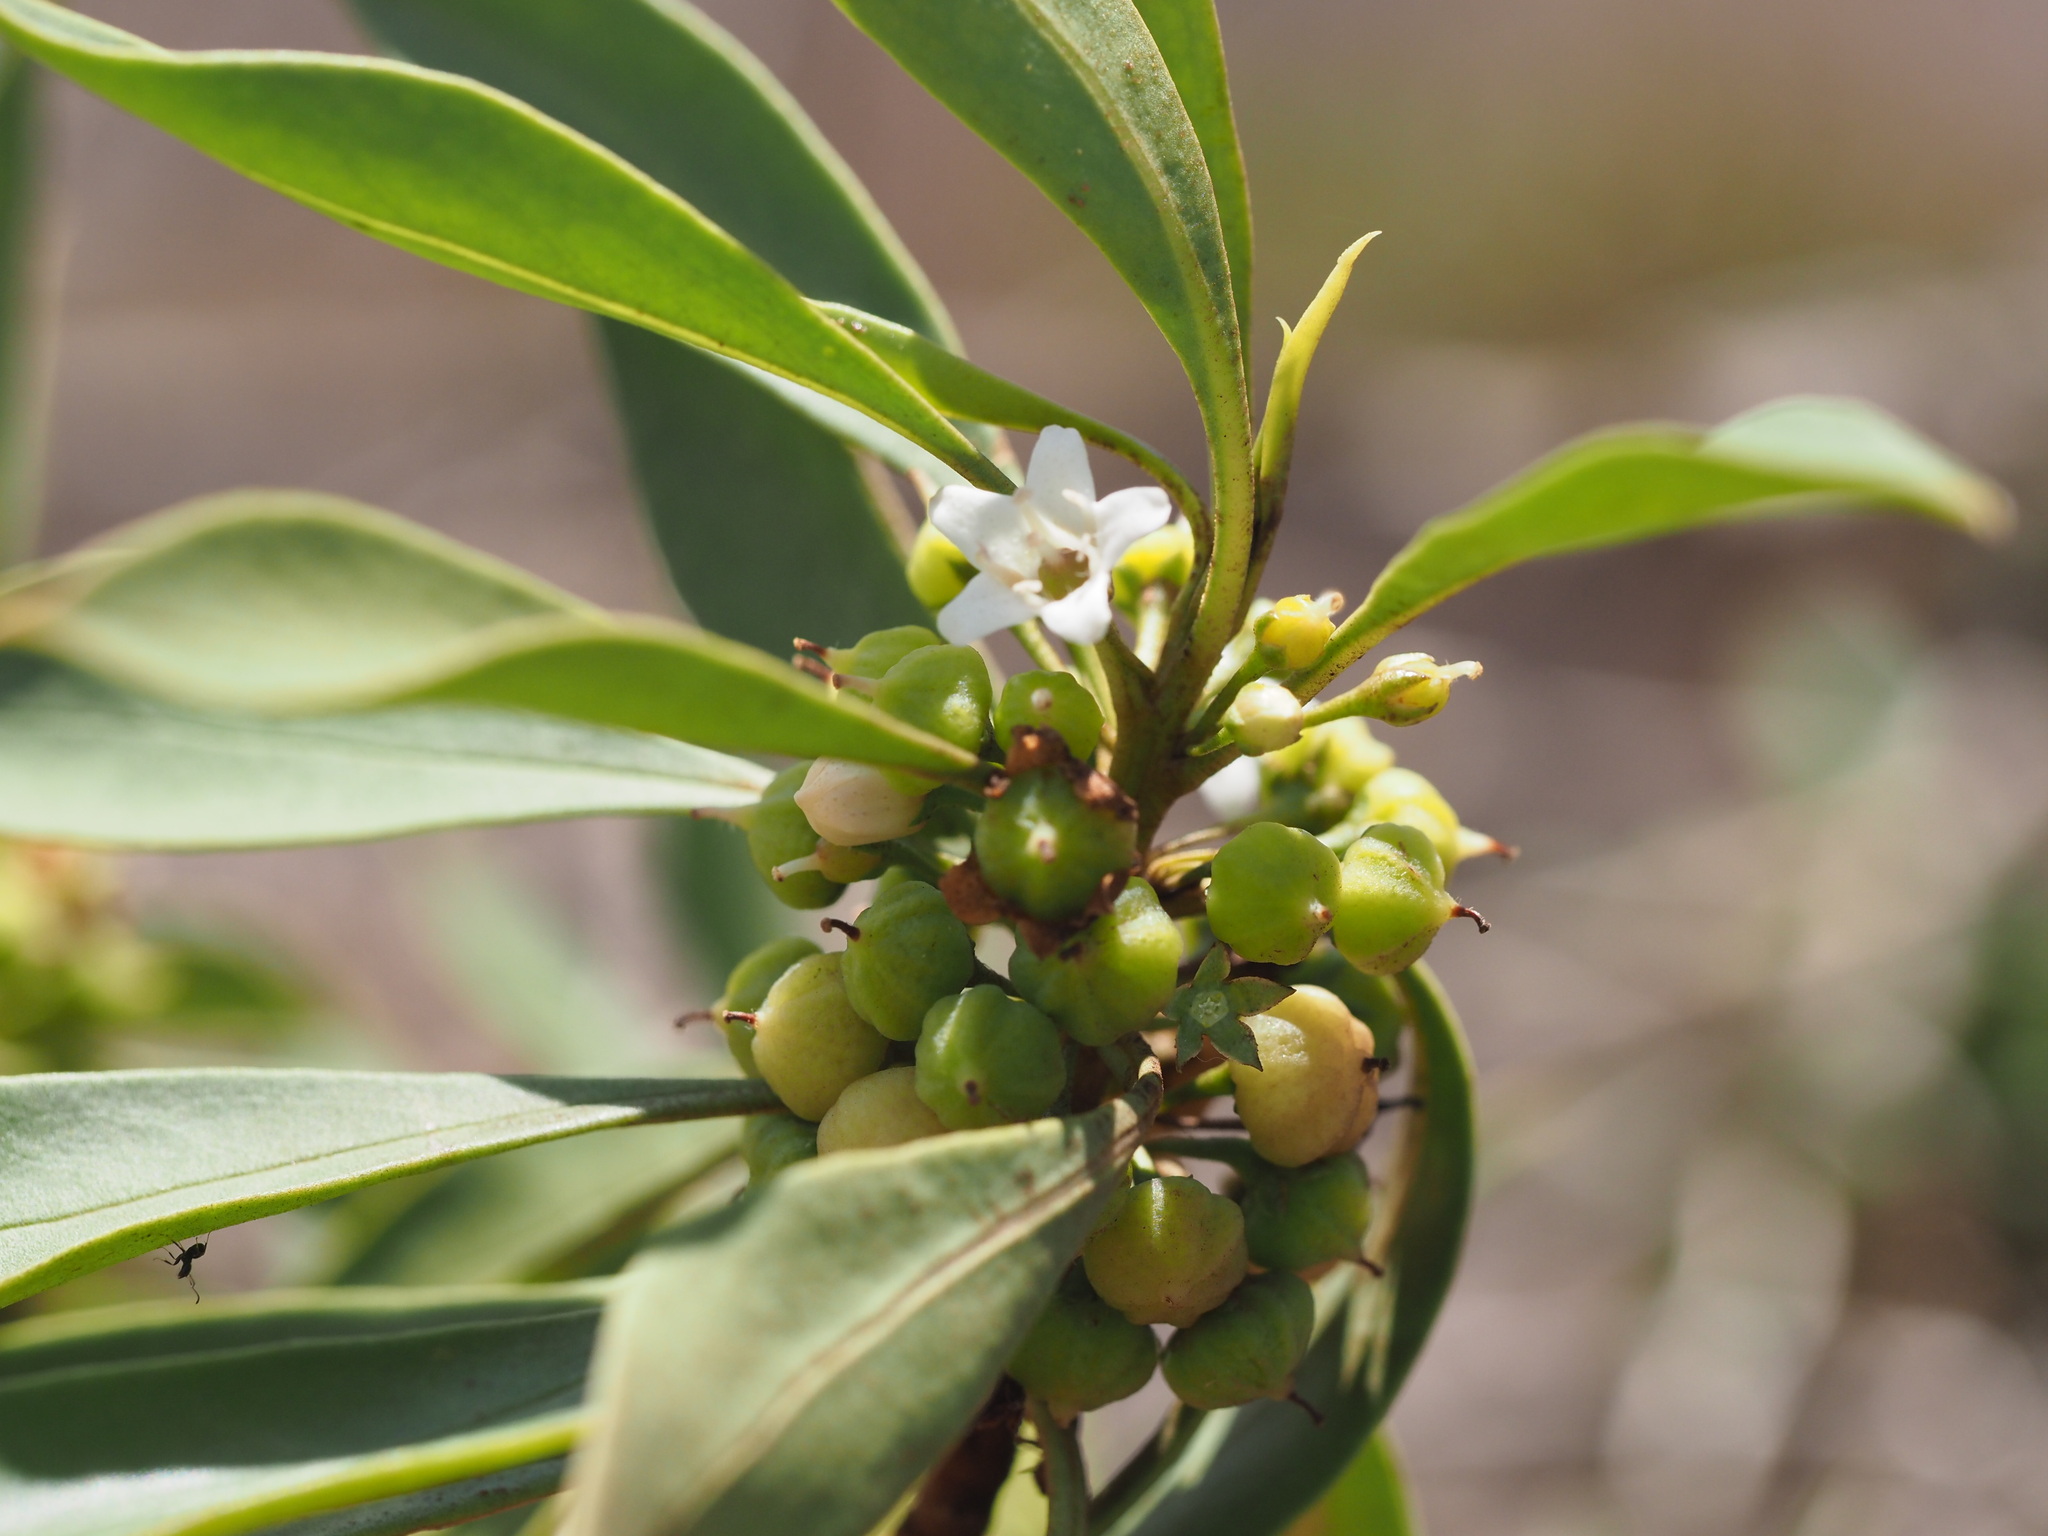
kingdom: Plantae
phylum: Tracheophyta
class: Magnoliopsida
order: Lamiales
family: Scrophulariaceae
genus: Myoporum
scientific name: Myoporum sandwicense
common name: Bastard-sandalwood
